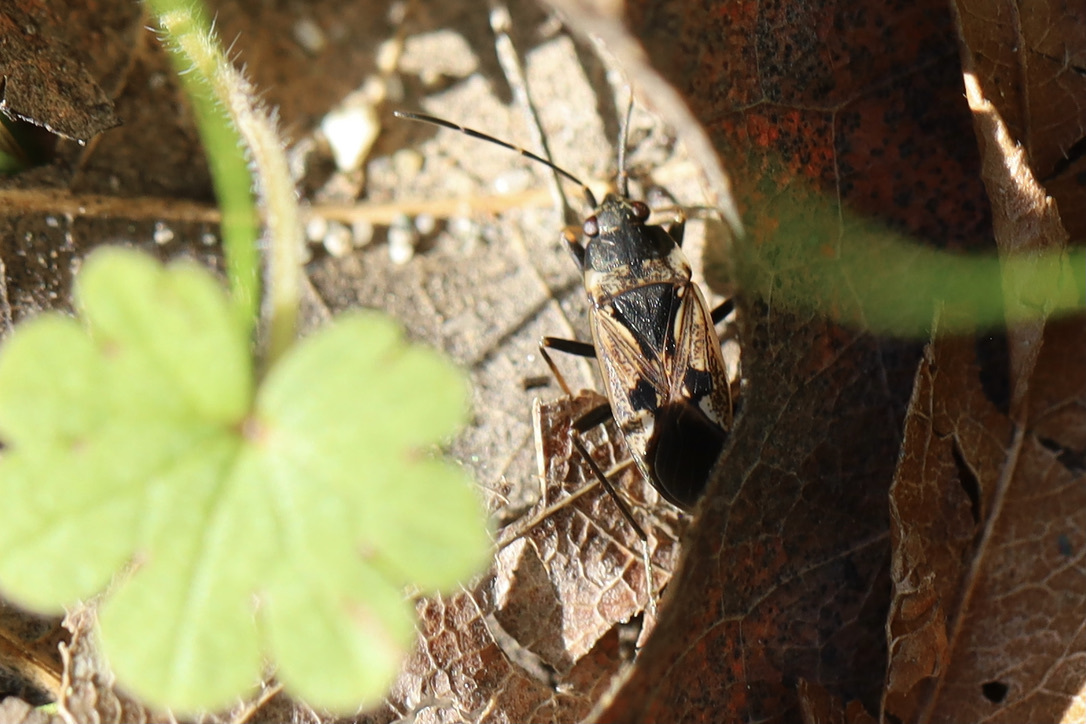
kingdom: Animalia
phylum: Arthropoda
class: Insecta
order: Hemiptera
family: Rhyparochromidae
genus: Rhyparochromus
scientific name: Rhyparochromus vulgaris
